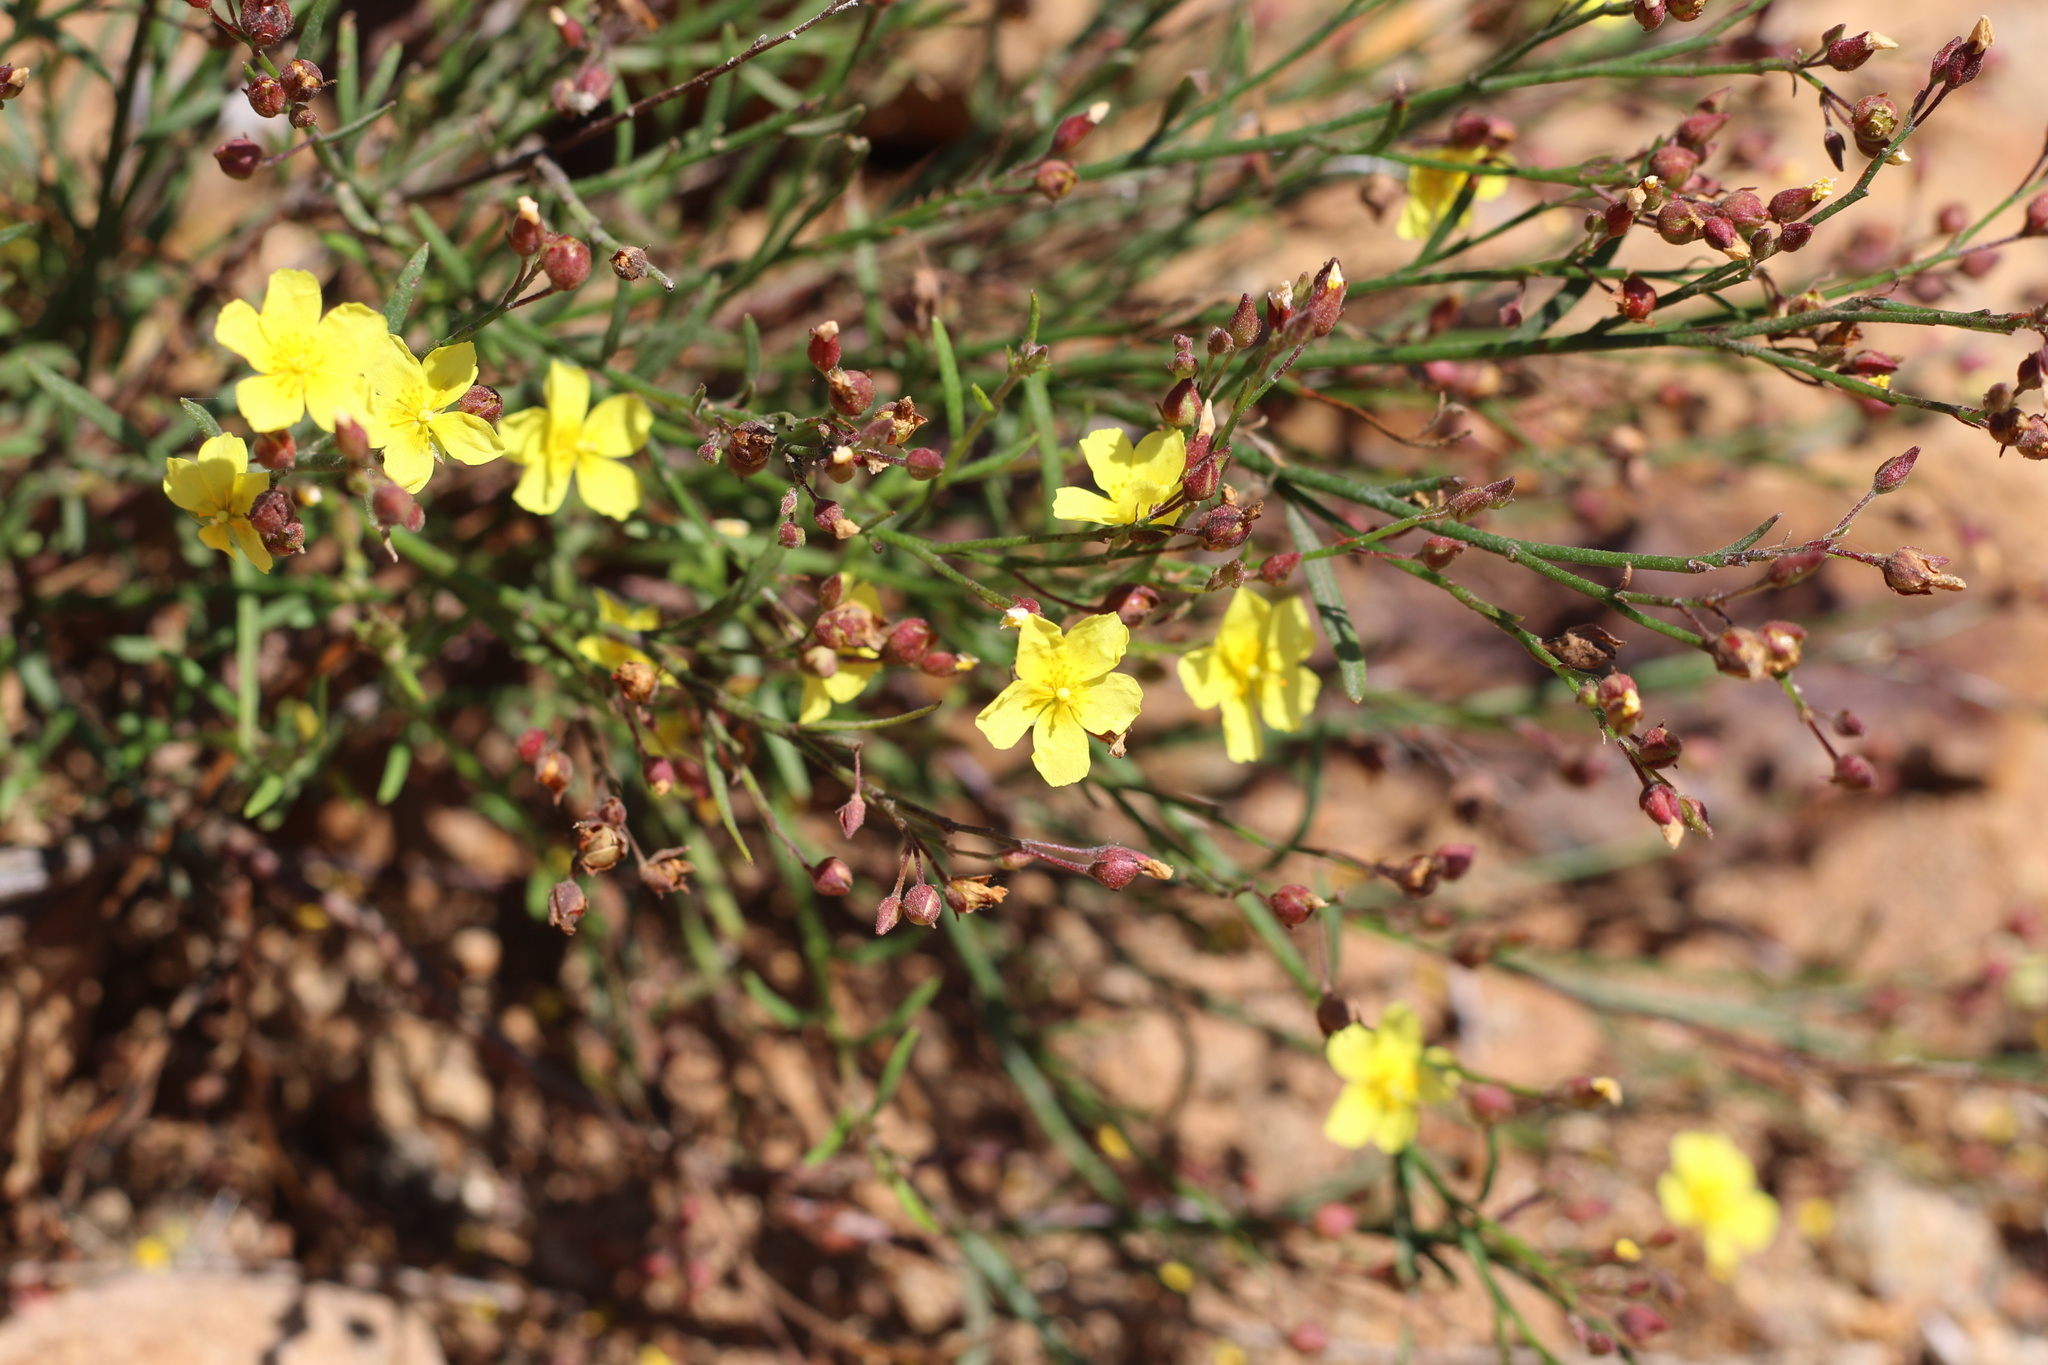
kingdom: Plantae
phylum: Tracheophyta
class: Magnoliopsida
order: Malvales
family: Cistaceae
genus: Crocanthemum
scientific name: Crocanthemum scoparium
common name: Broom-rose
